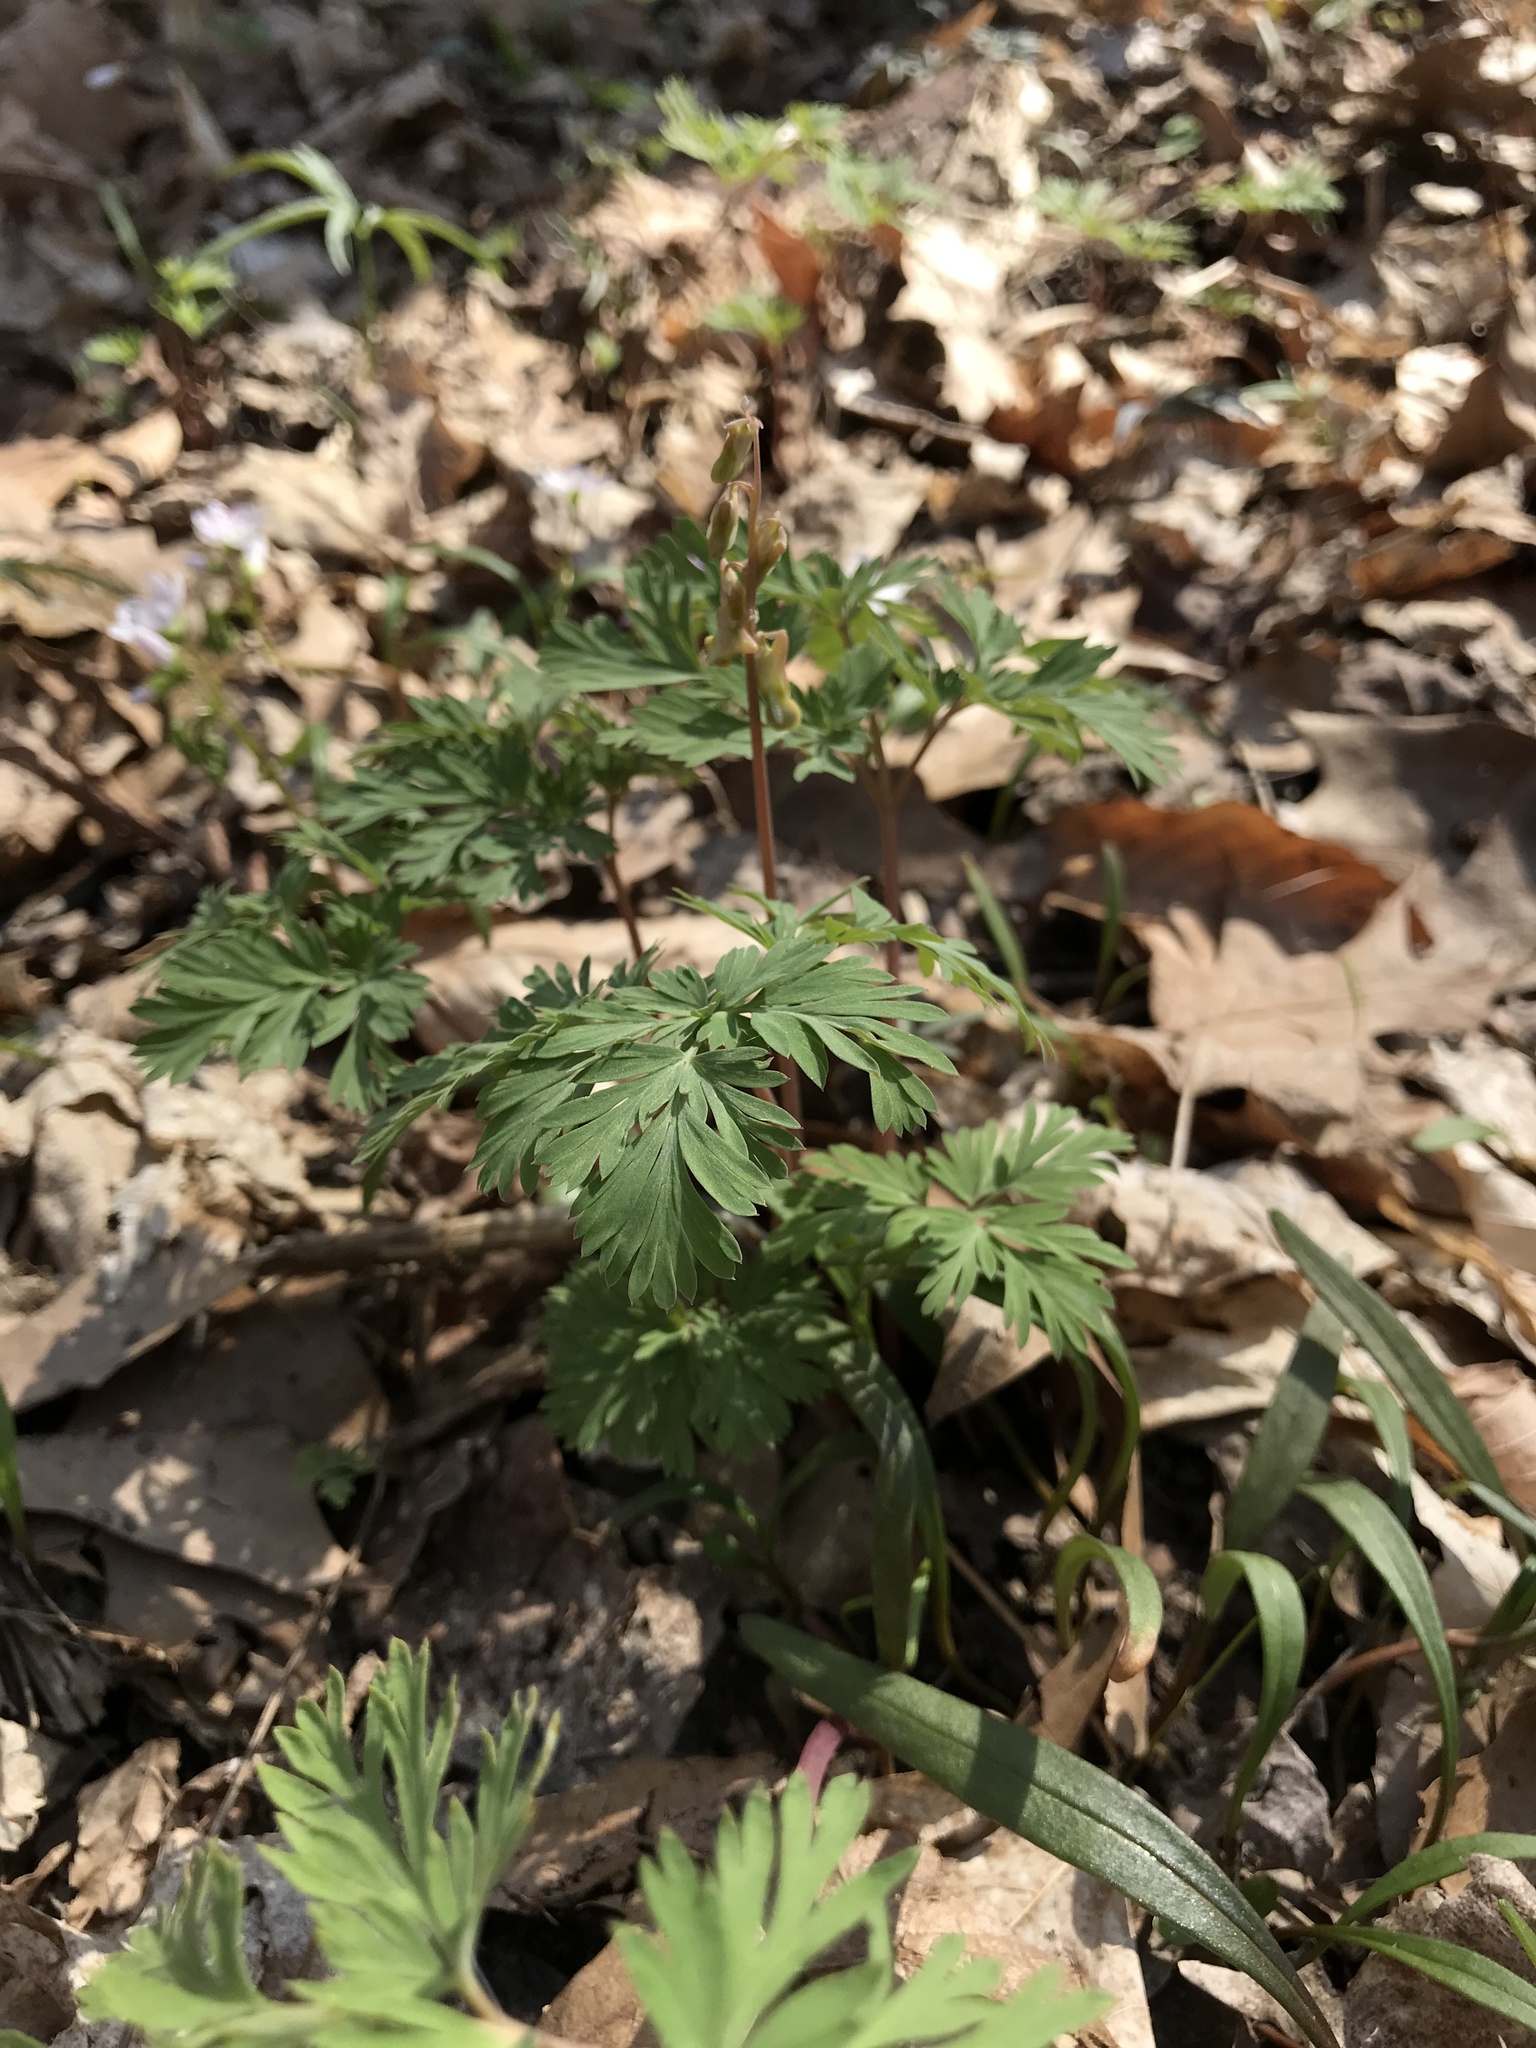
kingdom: Plantae
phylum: Tracheophyta
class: Magnoliopsida
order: Ranunculales
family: Papaveraceae
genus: Dicentra
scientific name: Dicentra cucullaria
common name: Dutchman's breeches
